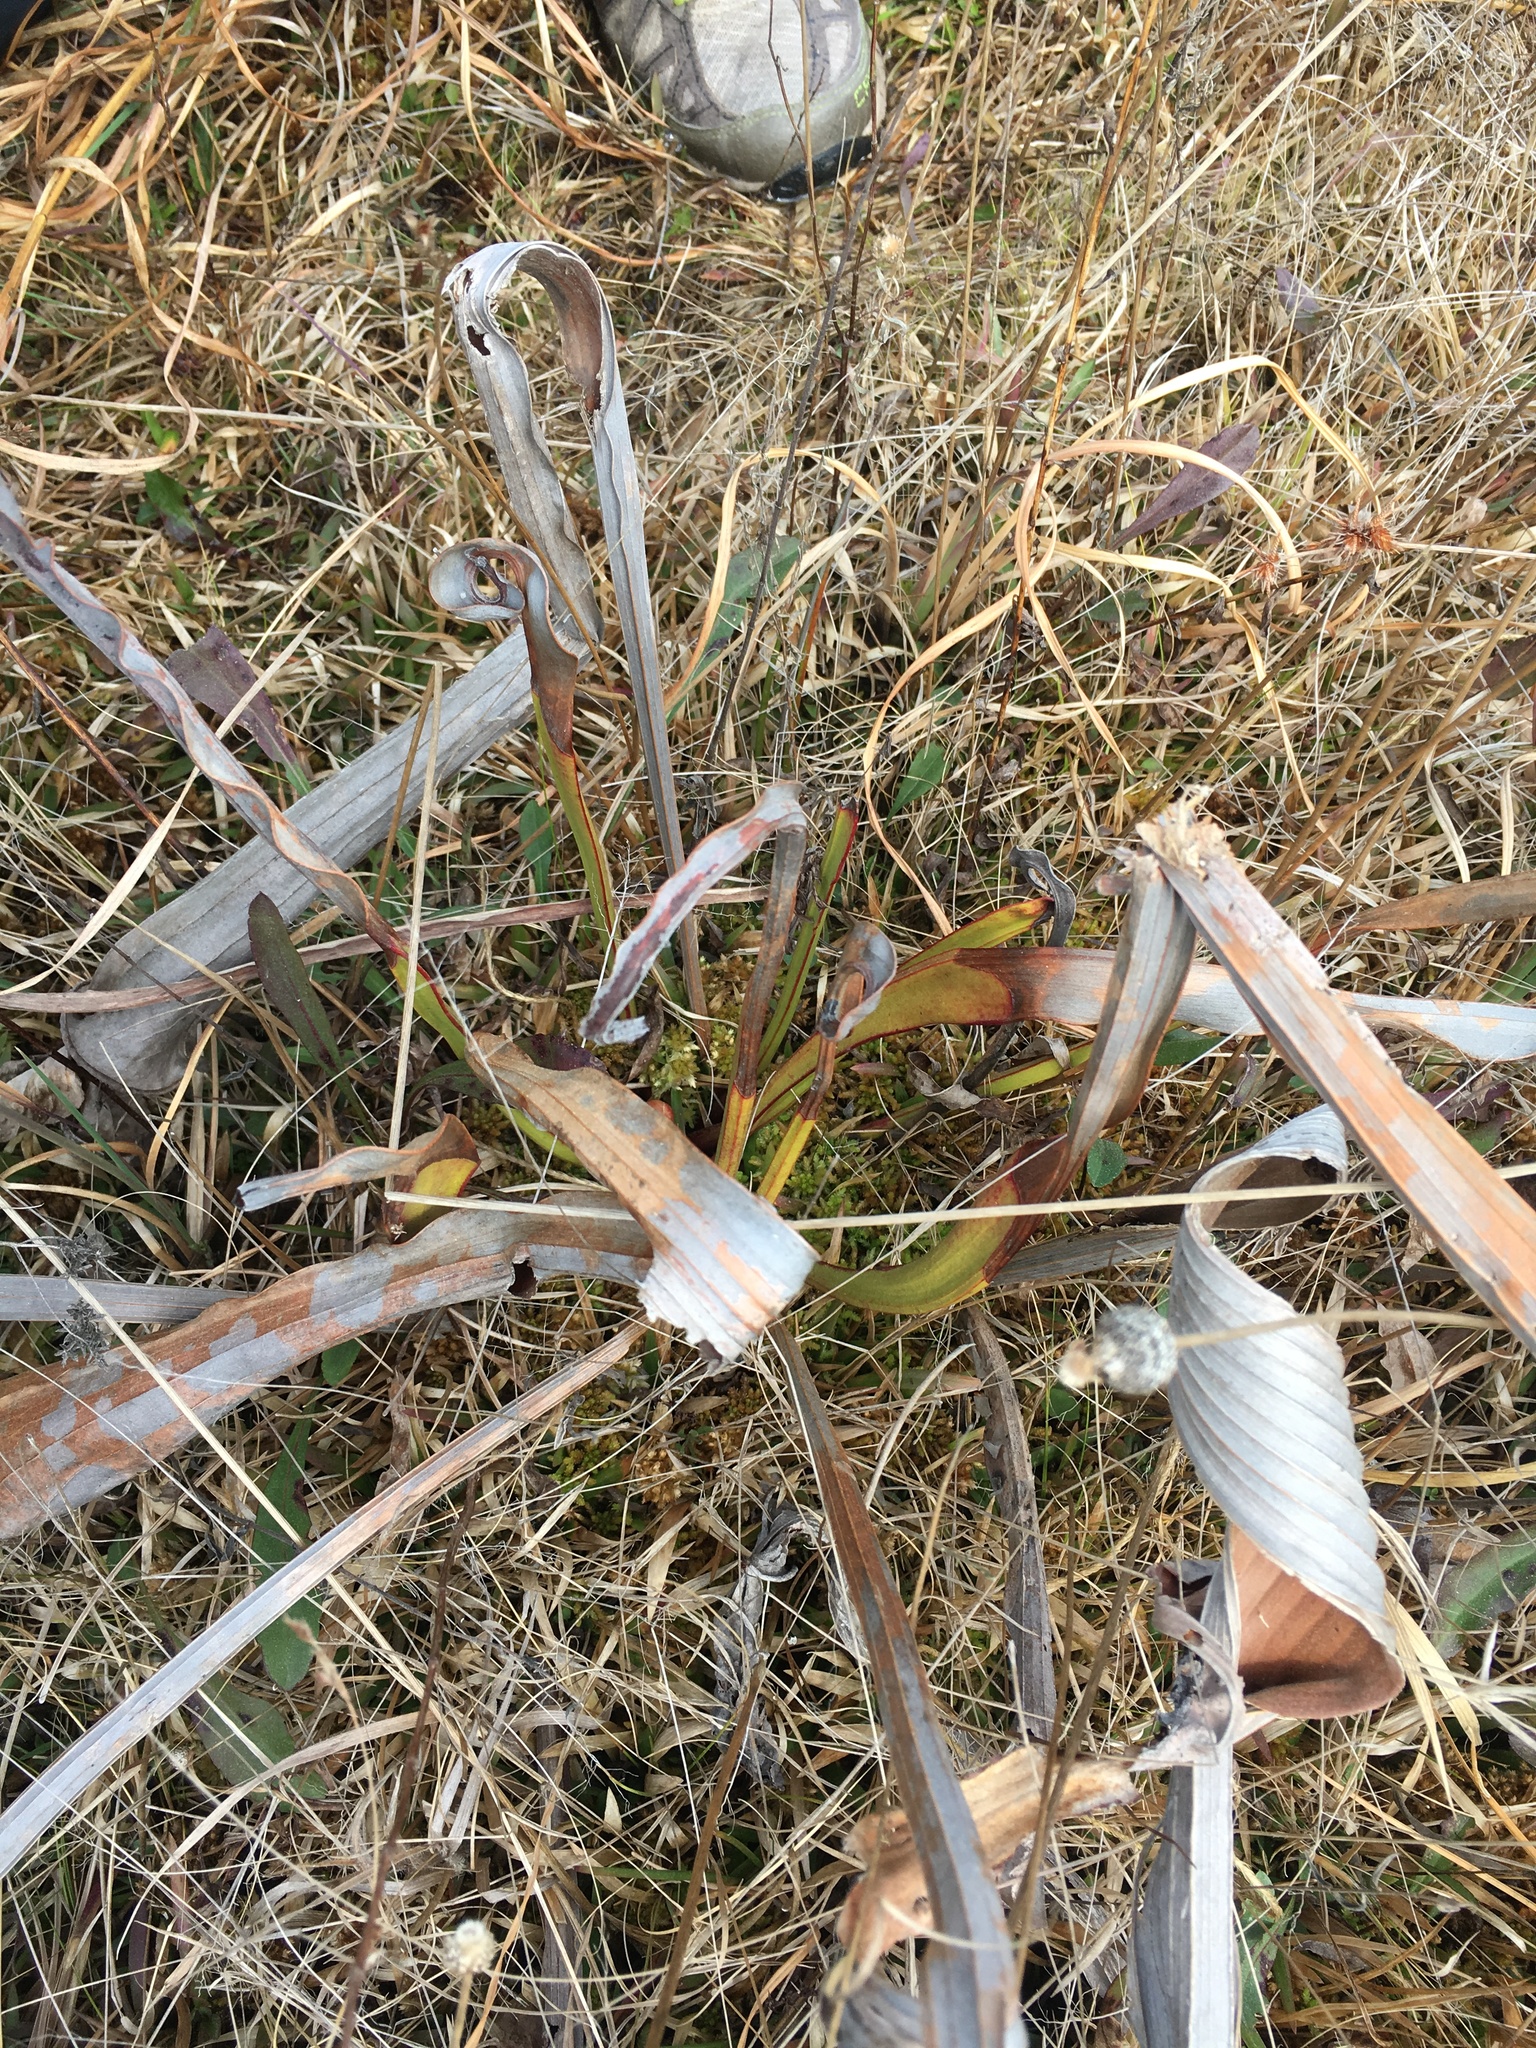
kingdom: Plantae
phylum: Tracheophyta
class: Magnoliopsida
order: Ericales
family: Sarraceniaceae
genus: Sarracenia
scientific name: Sarracenia flava
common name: Trumpets
